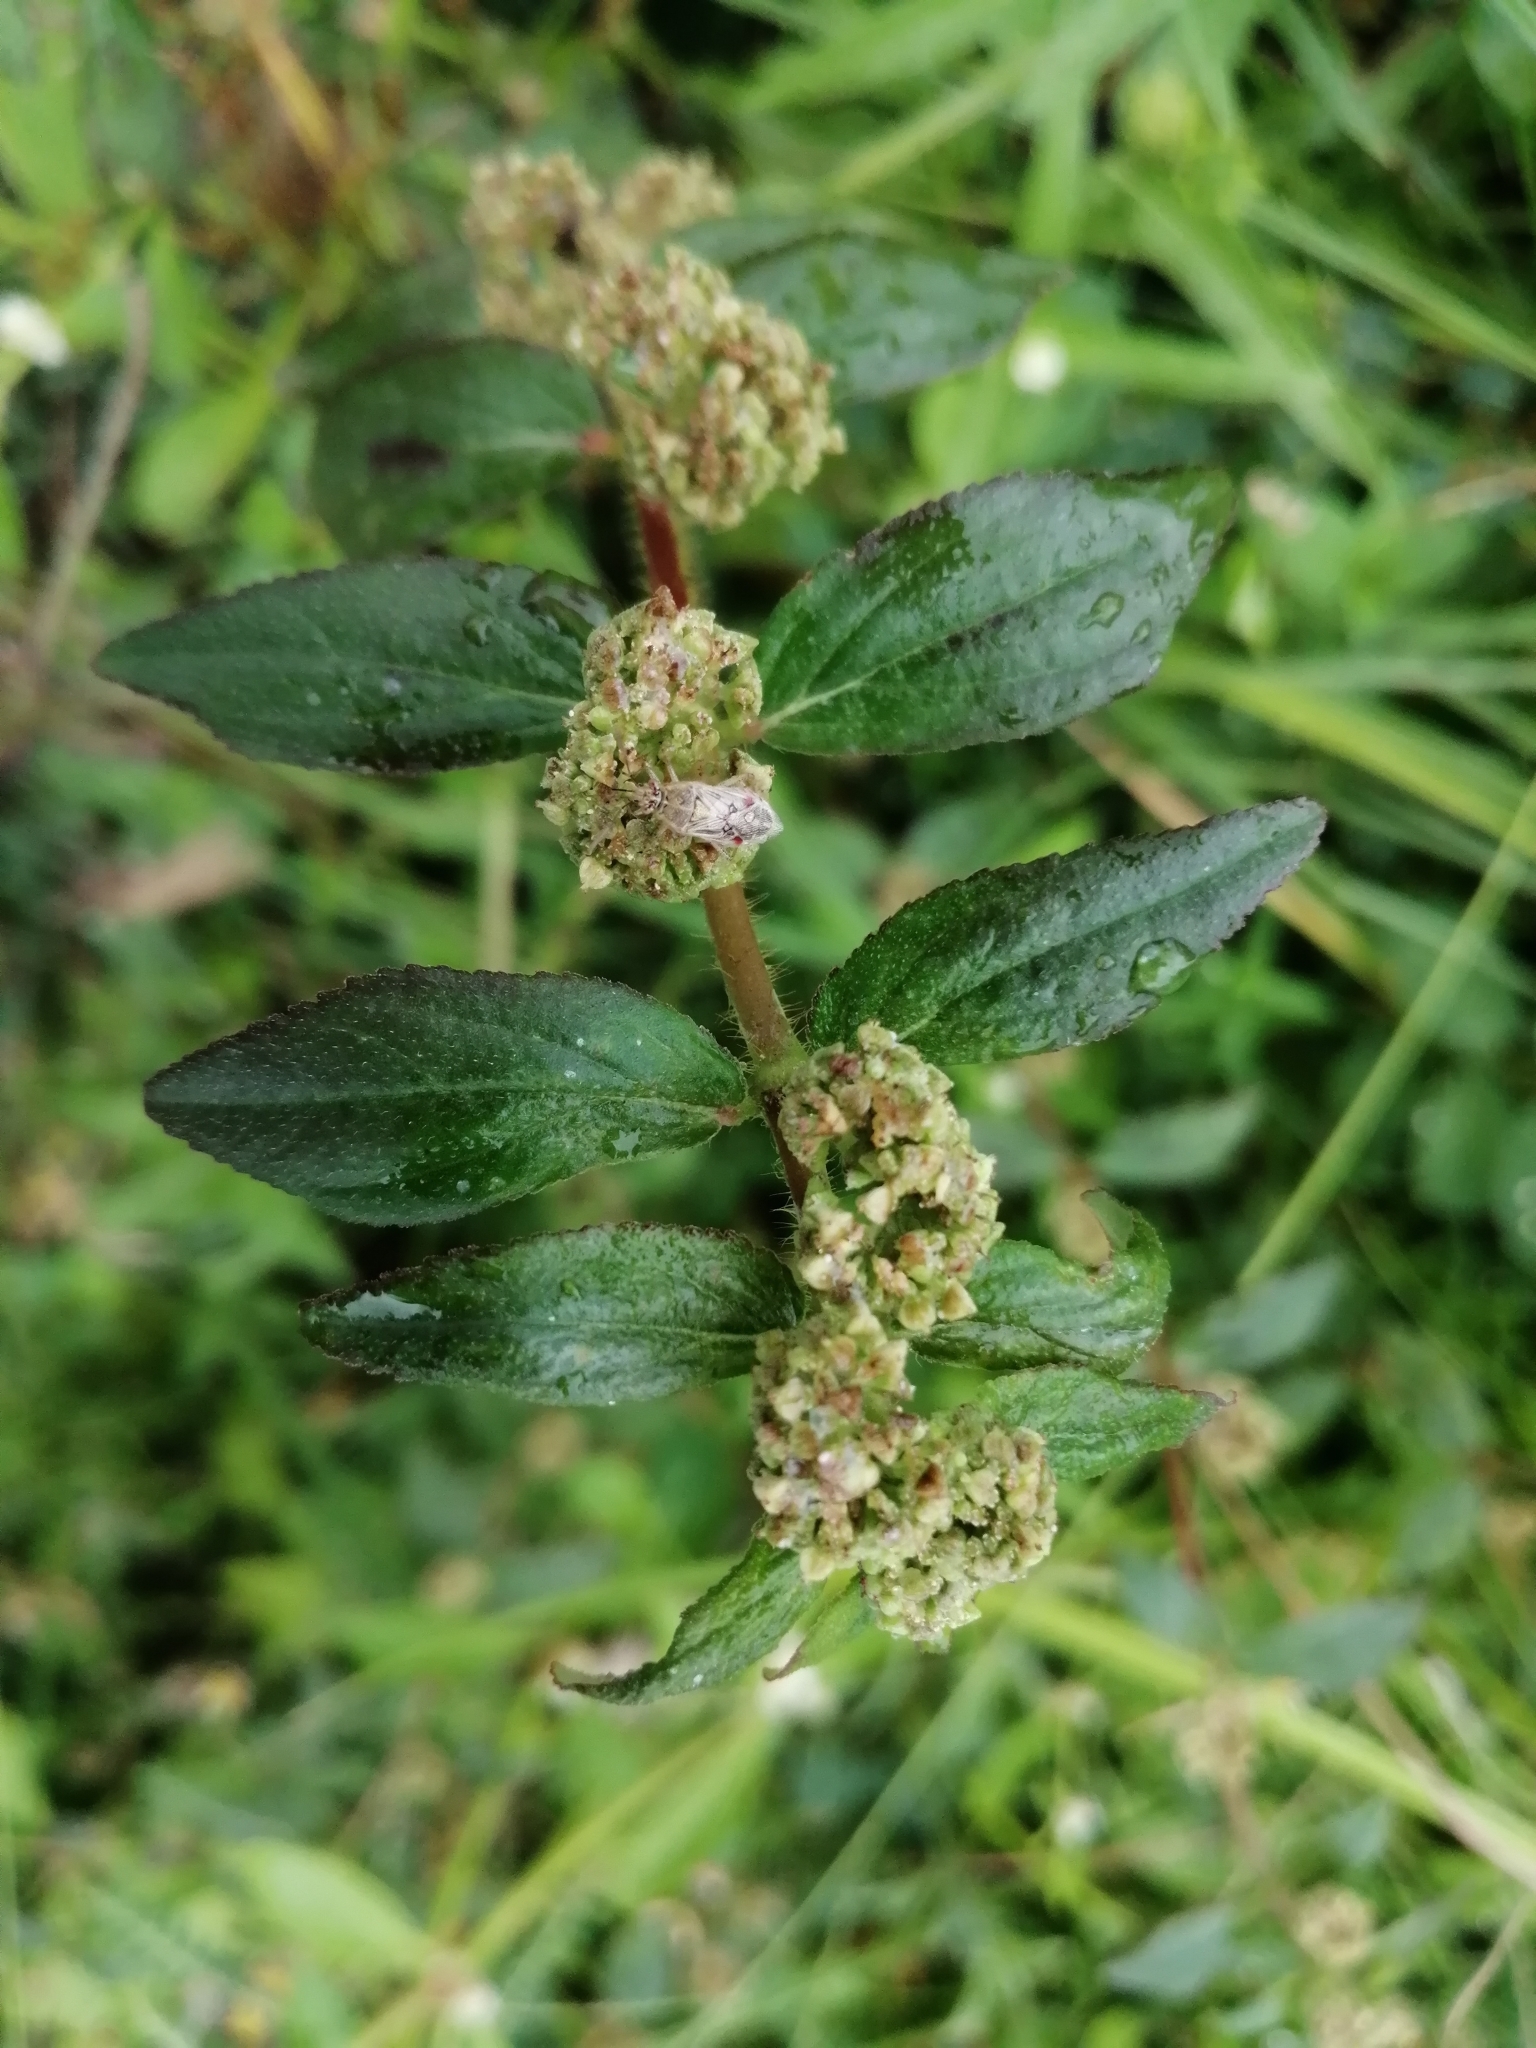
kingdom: Plantae
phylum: Tracheophyta
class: Magnoliopsida
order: Malpighiales
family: Euphorbiaceae
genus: Euphorbia
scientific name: Euphorbia hirta
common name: Pillpod sandmat
